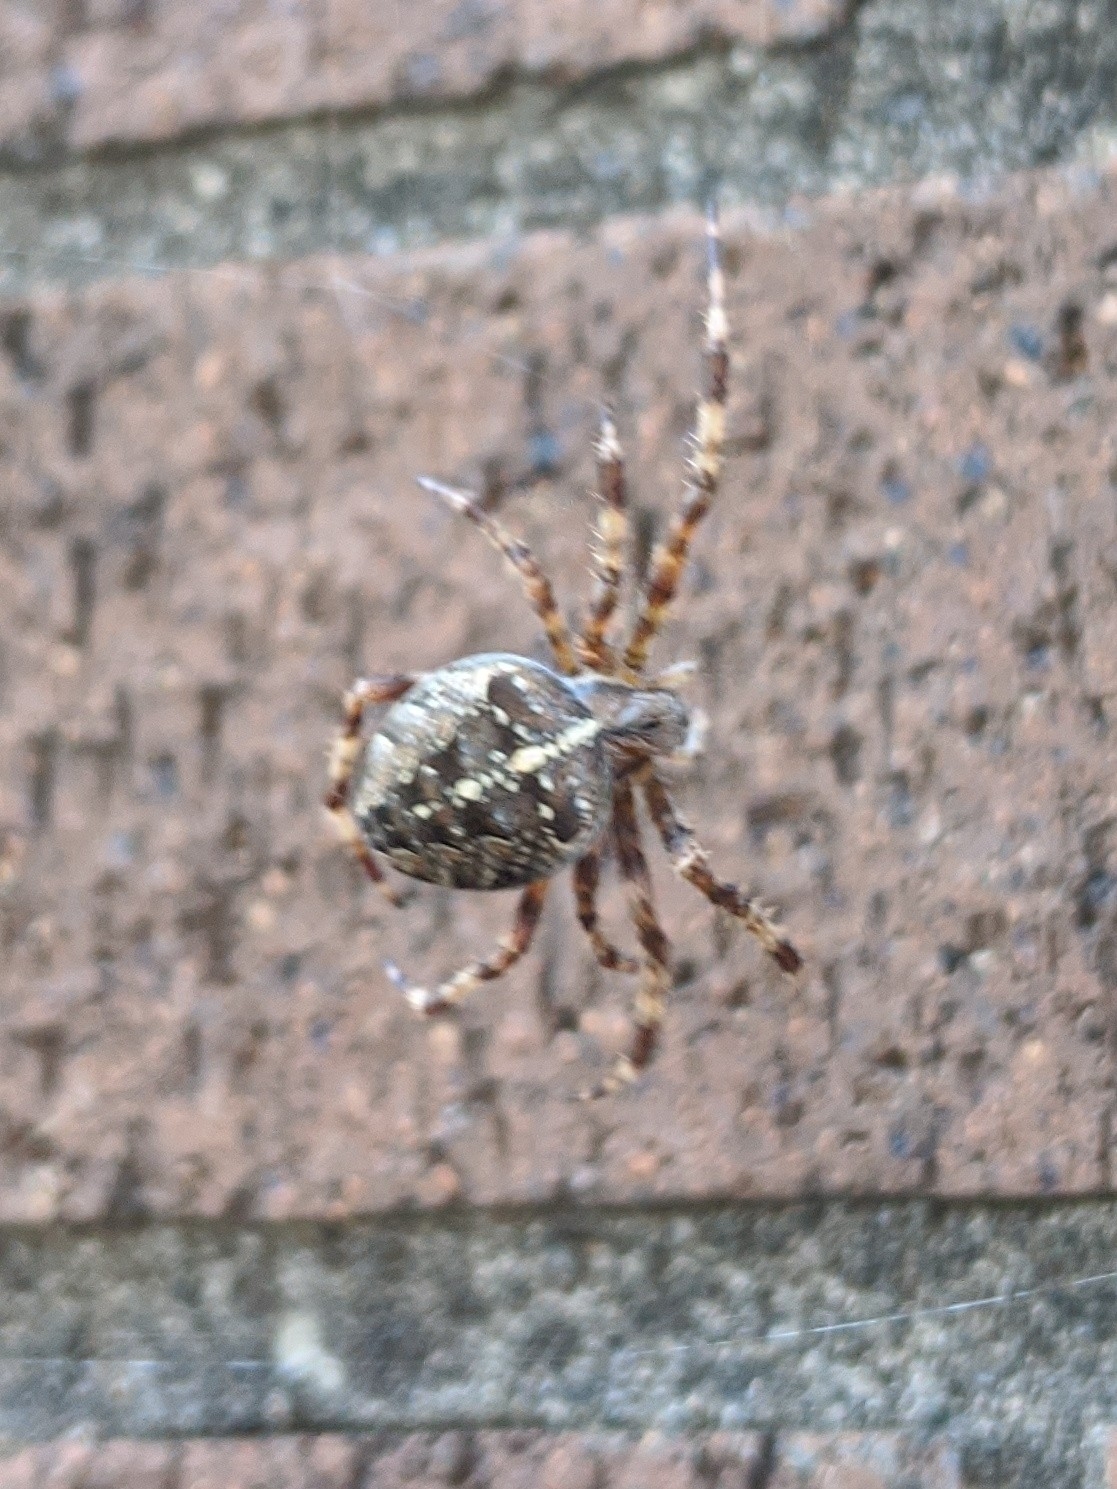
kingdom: Animalia
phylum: Arthropoda
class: Arachnida
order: Araneae
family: Araneidae
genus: Araneus
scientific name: Araneus diadematus
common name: Cross orbweaver
